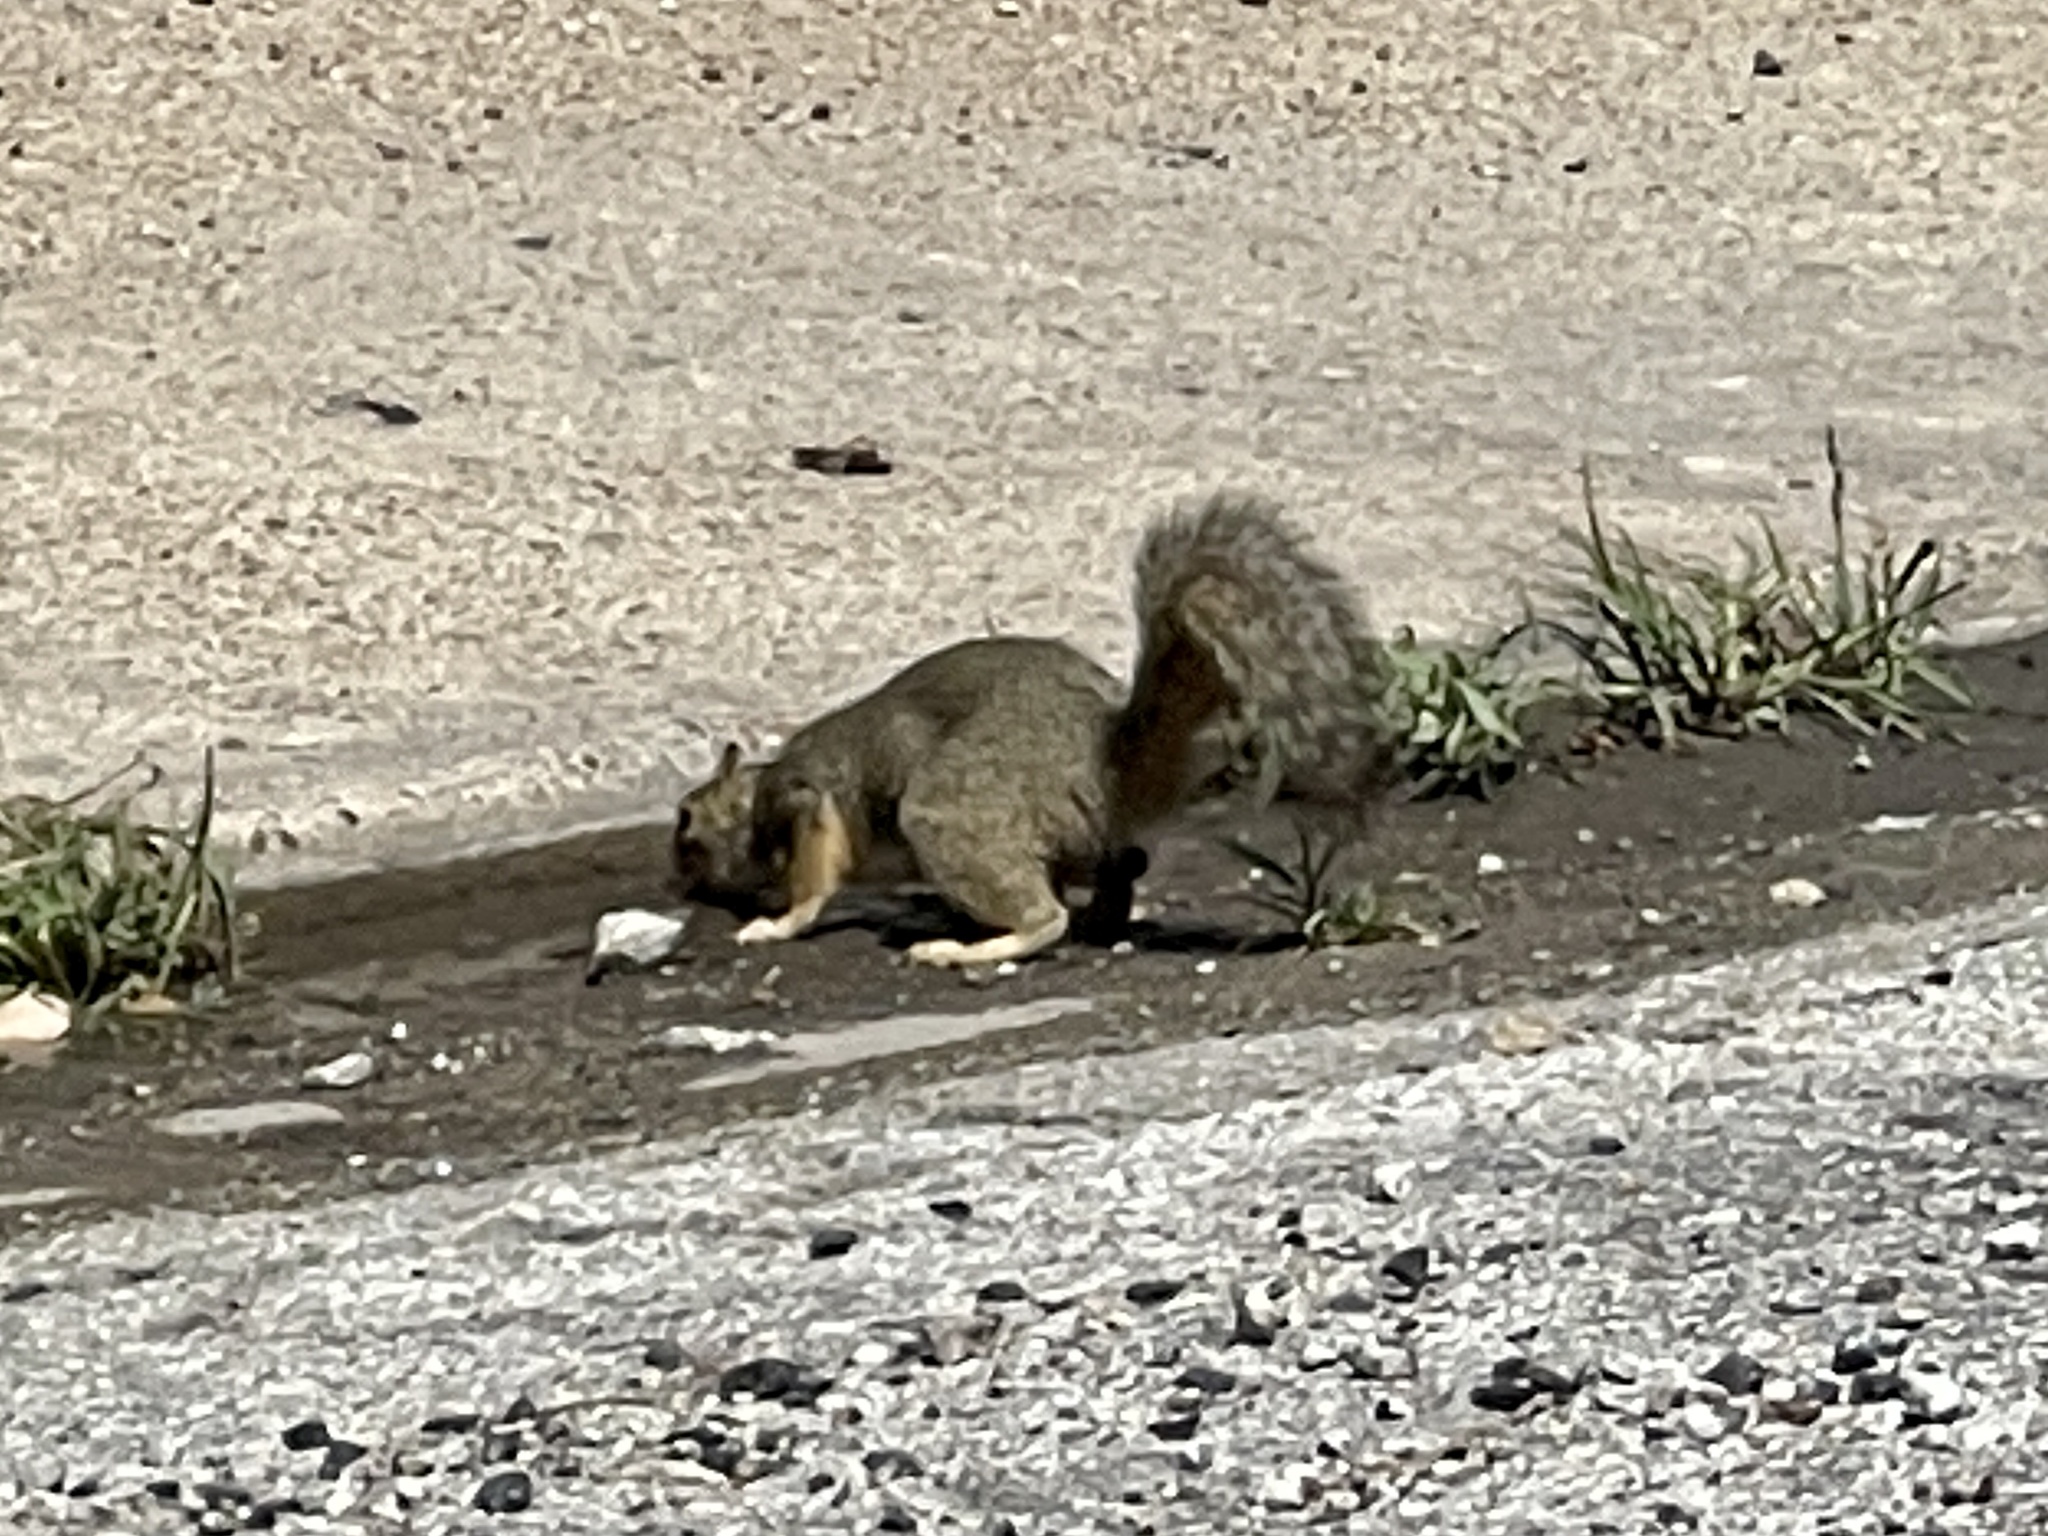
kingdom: Animalia
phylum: Chordata
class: Mammalia
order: Rodentia
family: Sciuridae
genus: Sciurus
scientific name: Sciurus niger
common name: Fox squirrel
